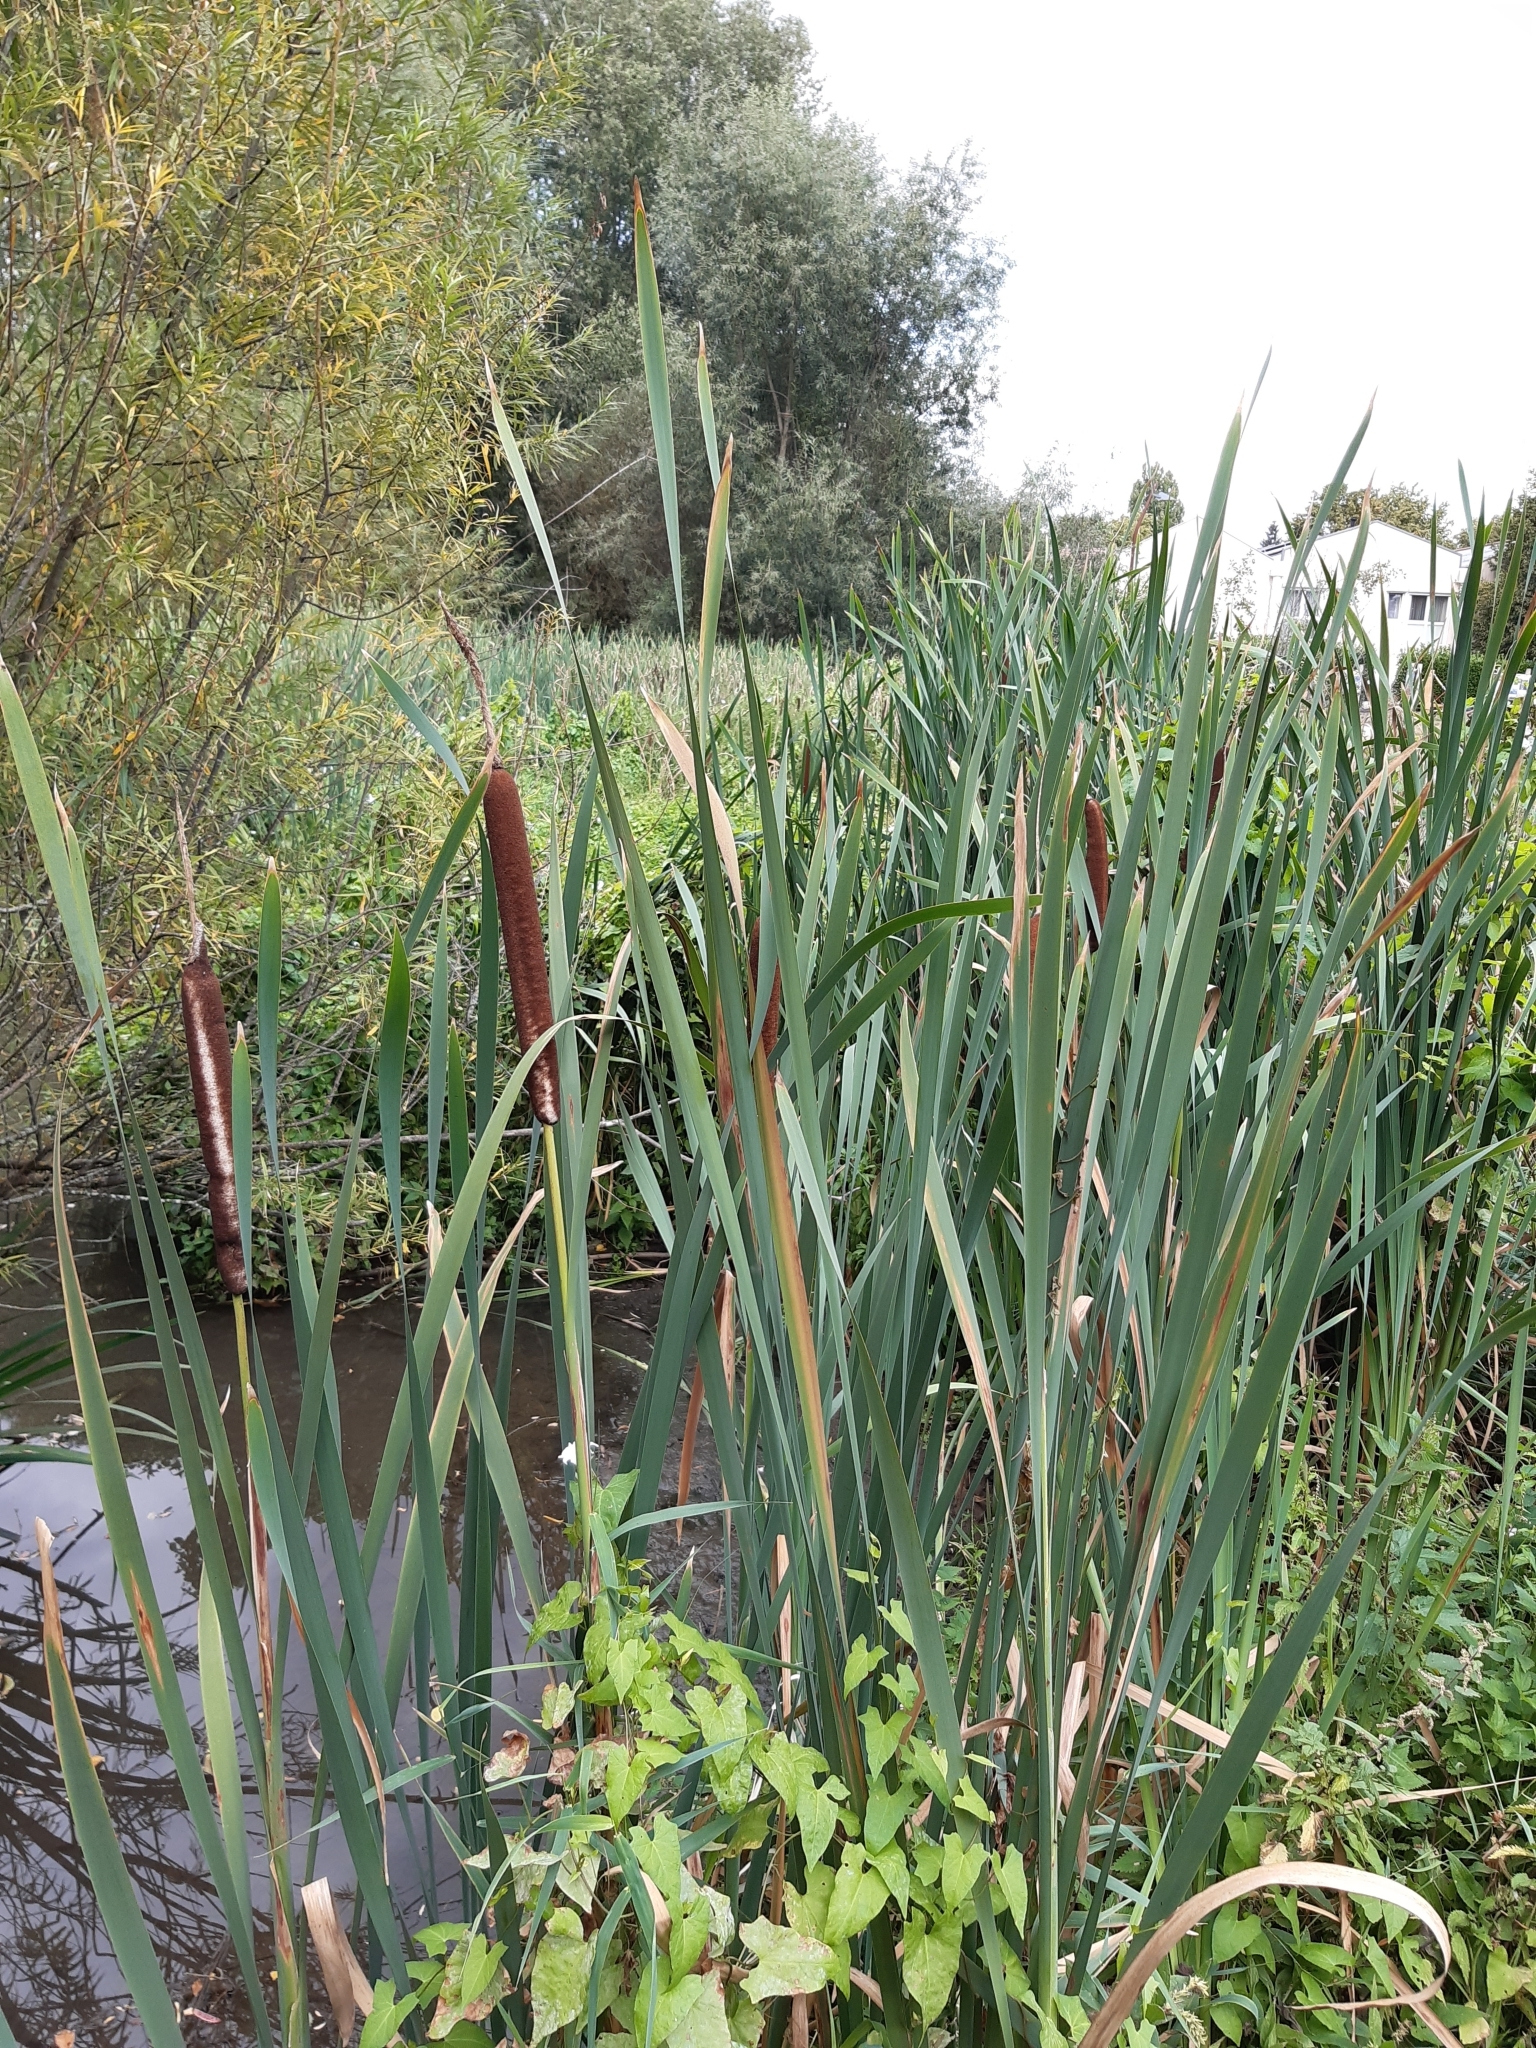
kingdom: Plantae
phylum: Tracheophyta
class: Liliopsida
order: Poales
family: Typhaceae
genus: Typha
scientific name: Typha latifolia
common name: Broadleaf cattail
